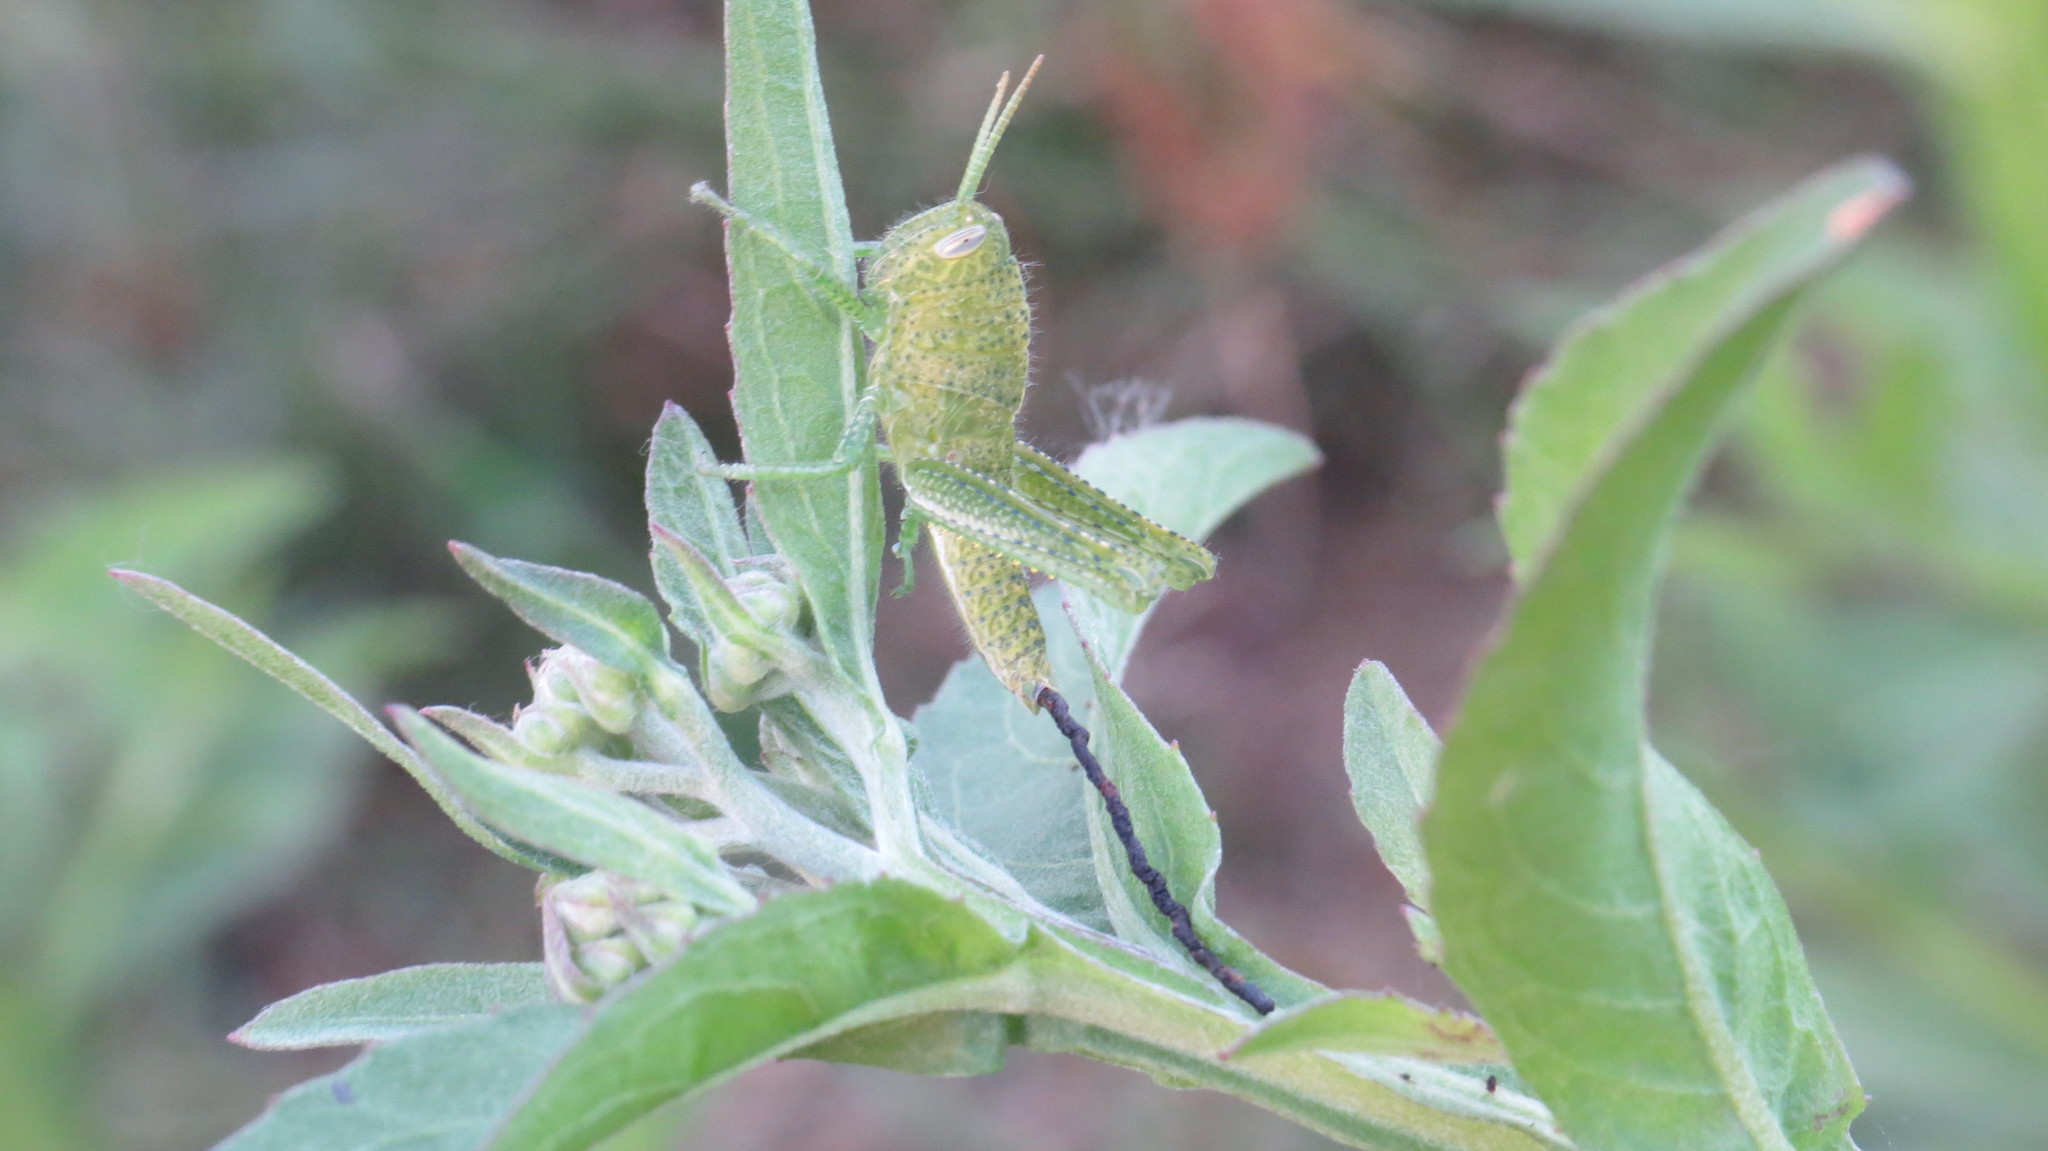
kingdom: Animalia
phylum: Arthropoda
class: Insecta
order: Orthoptera
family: Acrididae
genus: Schistocerca
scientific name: Schistocerca flavofasciata
